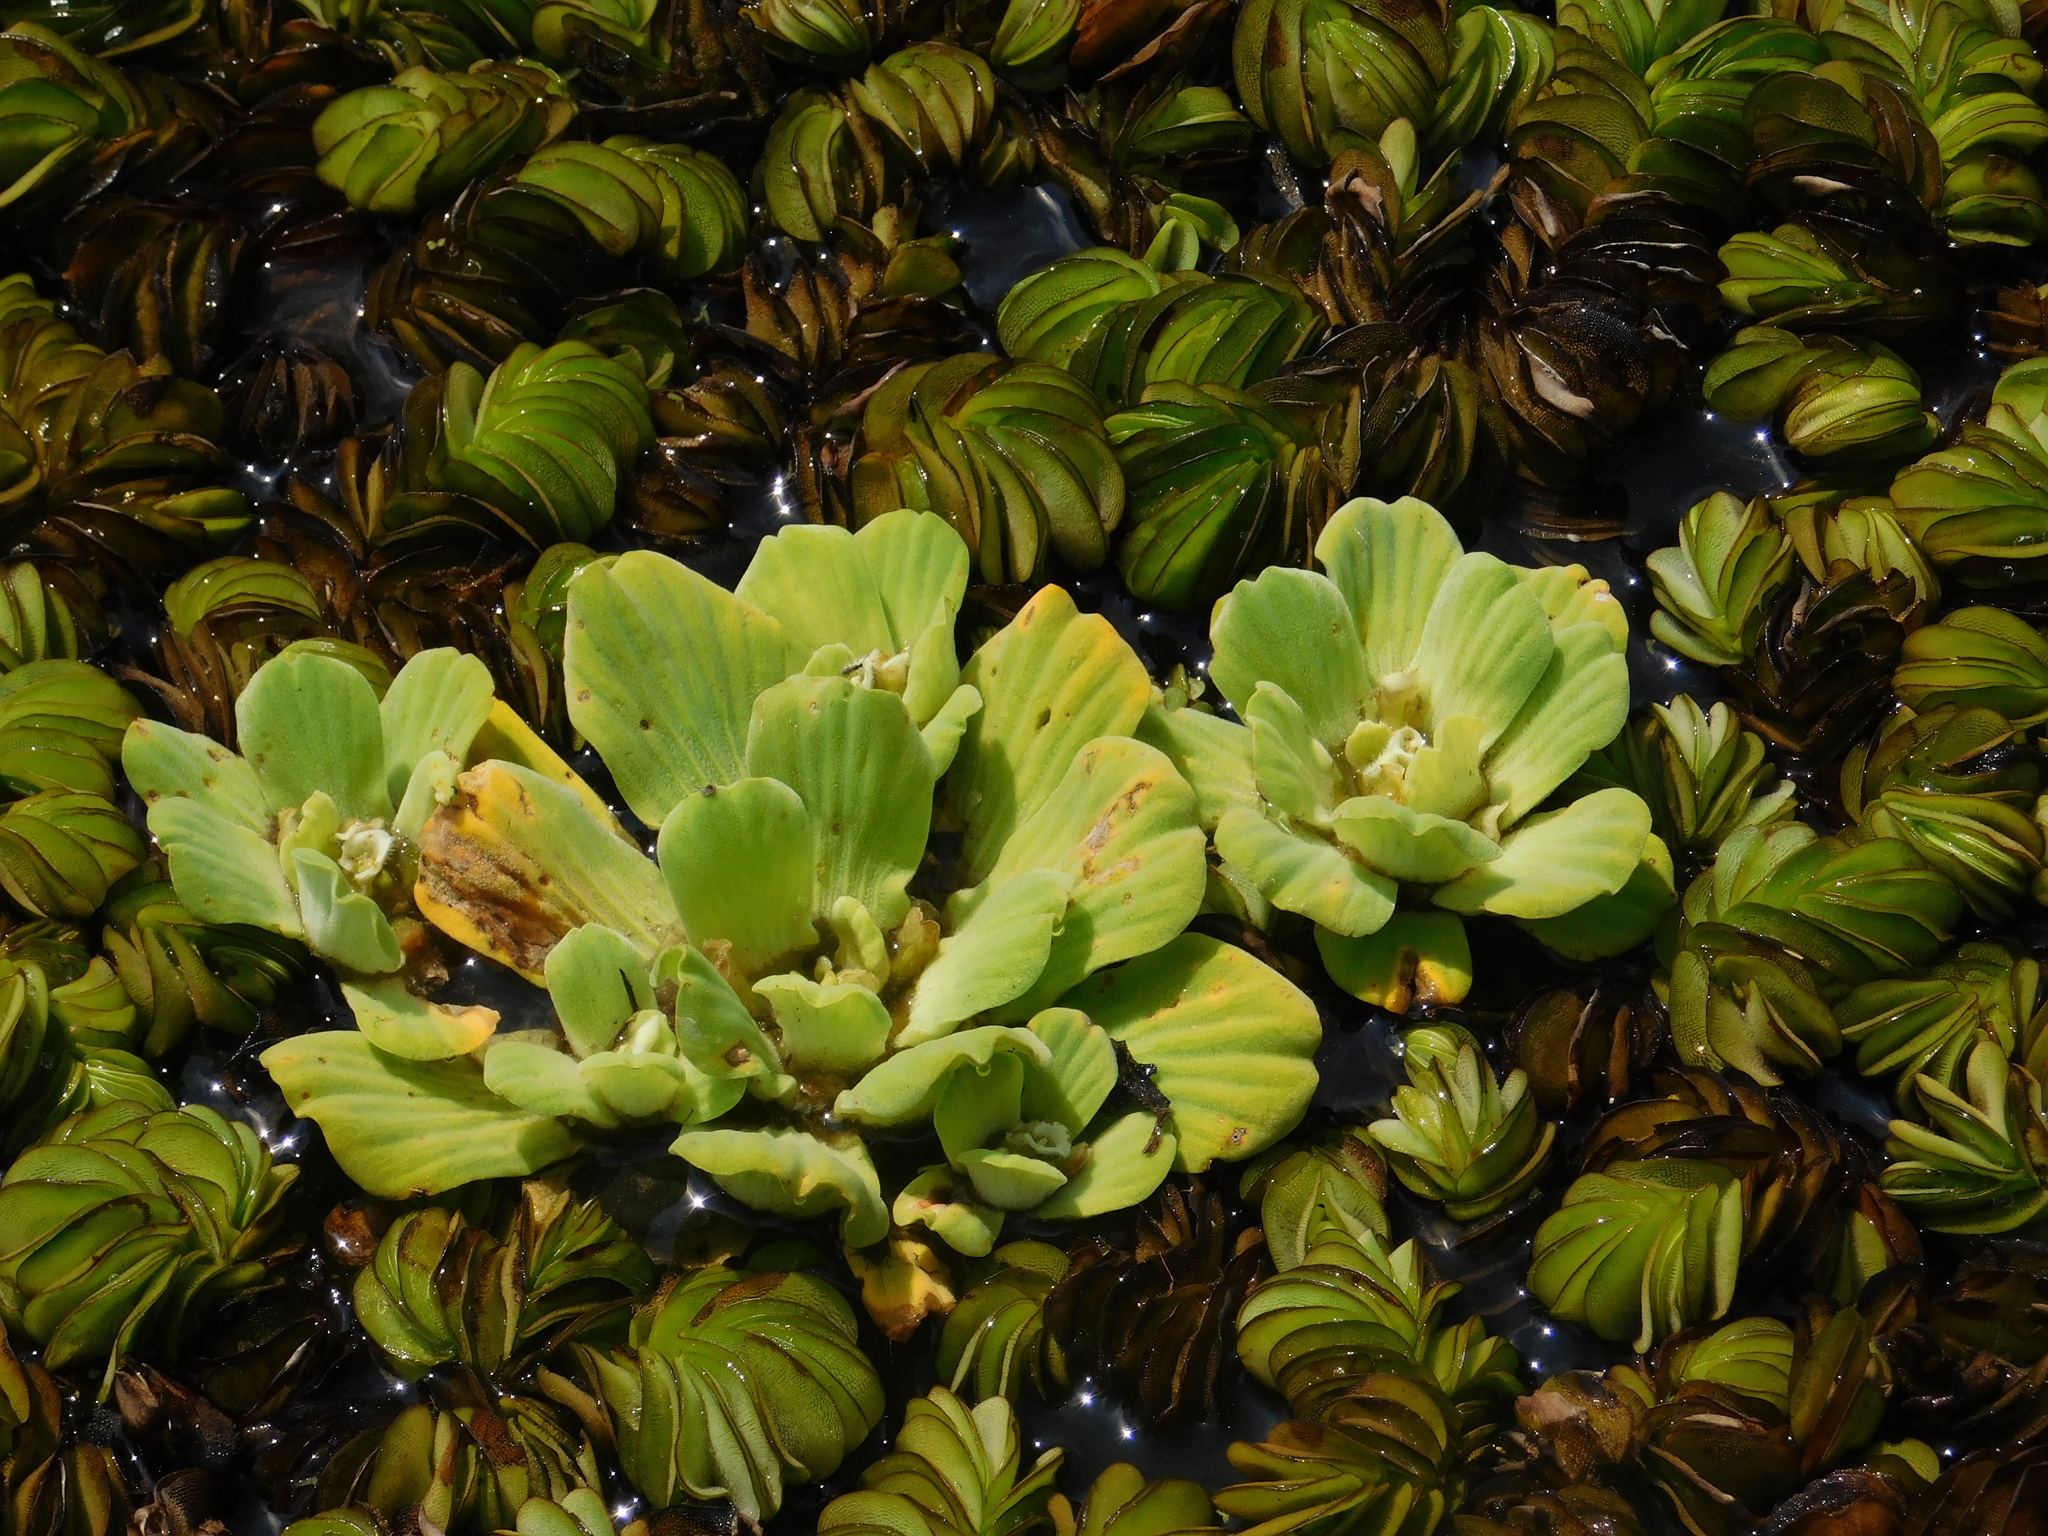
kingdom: Plantae
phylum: Tracheophyta
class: Liliopsida
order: Alismatales
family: Araceae
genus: Pistia
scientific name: Pistia stratiotes
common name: Water lettuce
